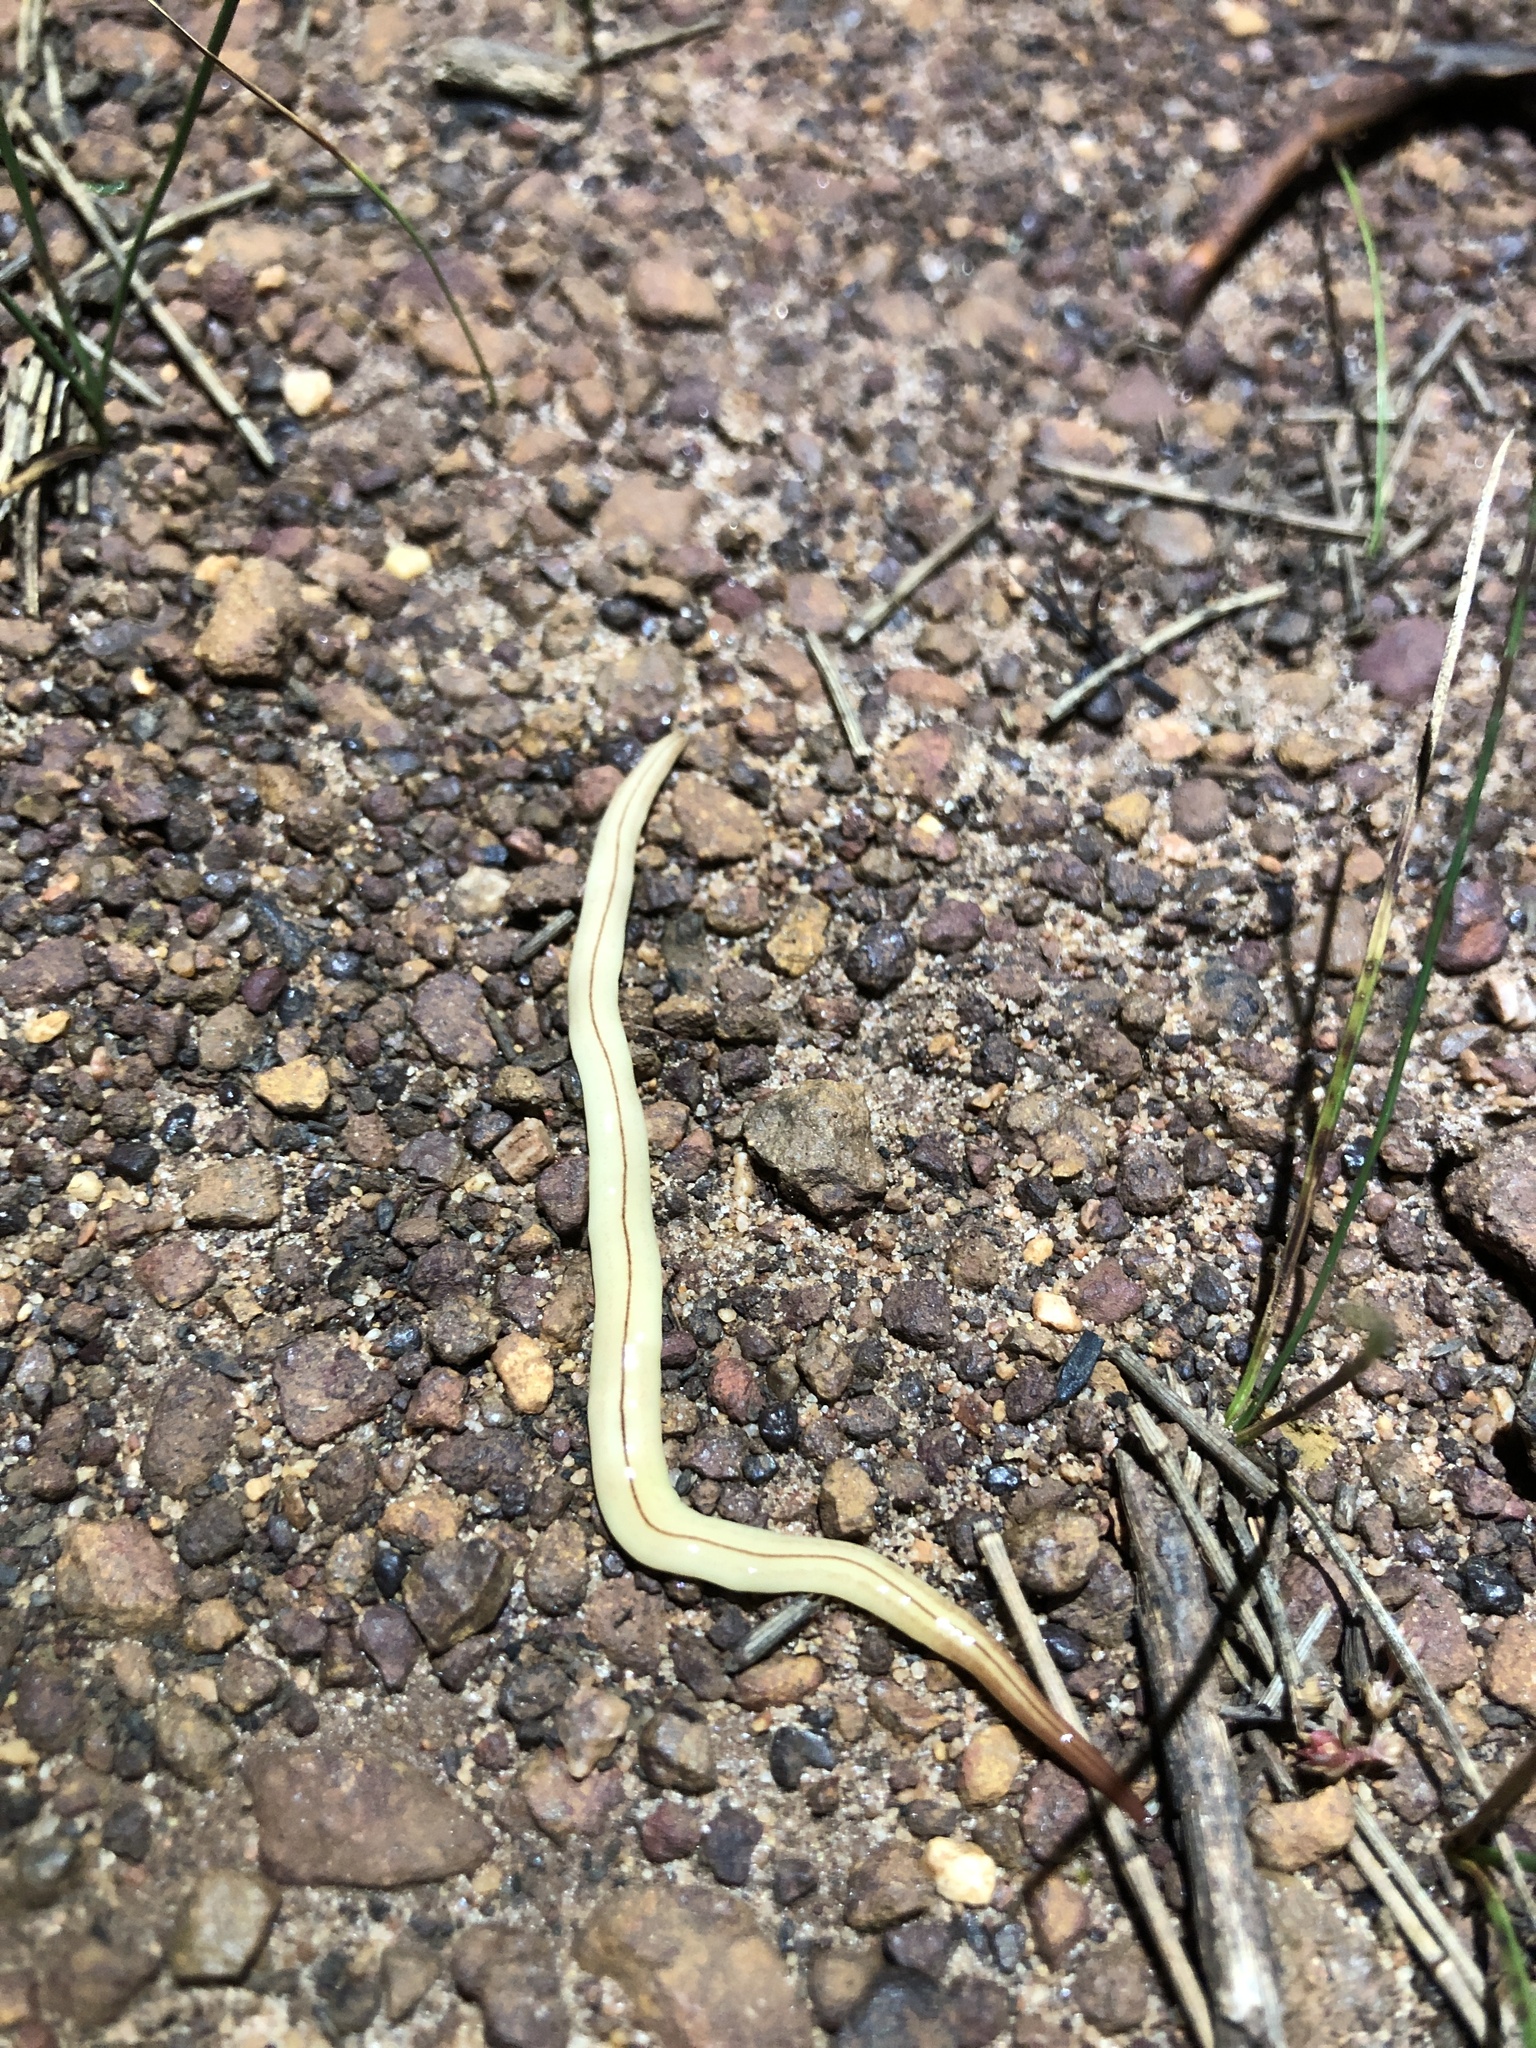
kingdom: Animalia
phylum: Platyhelminthes
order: Tricladida
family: Geoplanidae
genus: Fletchamia
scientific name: Fletchamia mediolineata
